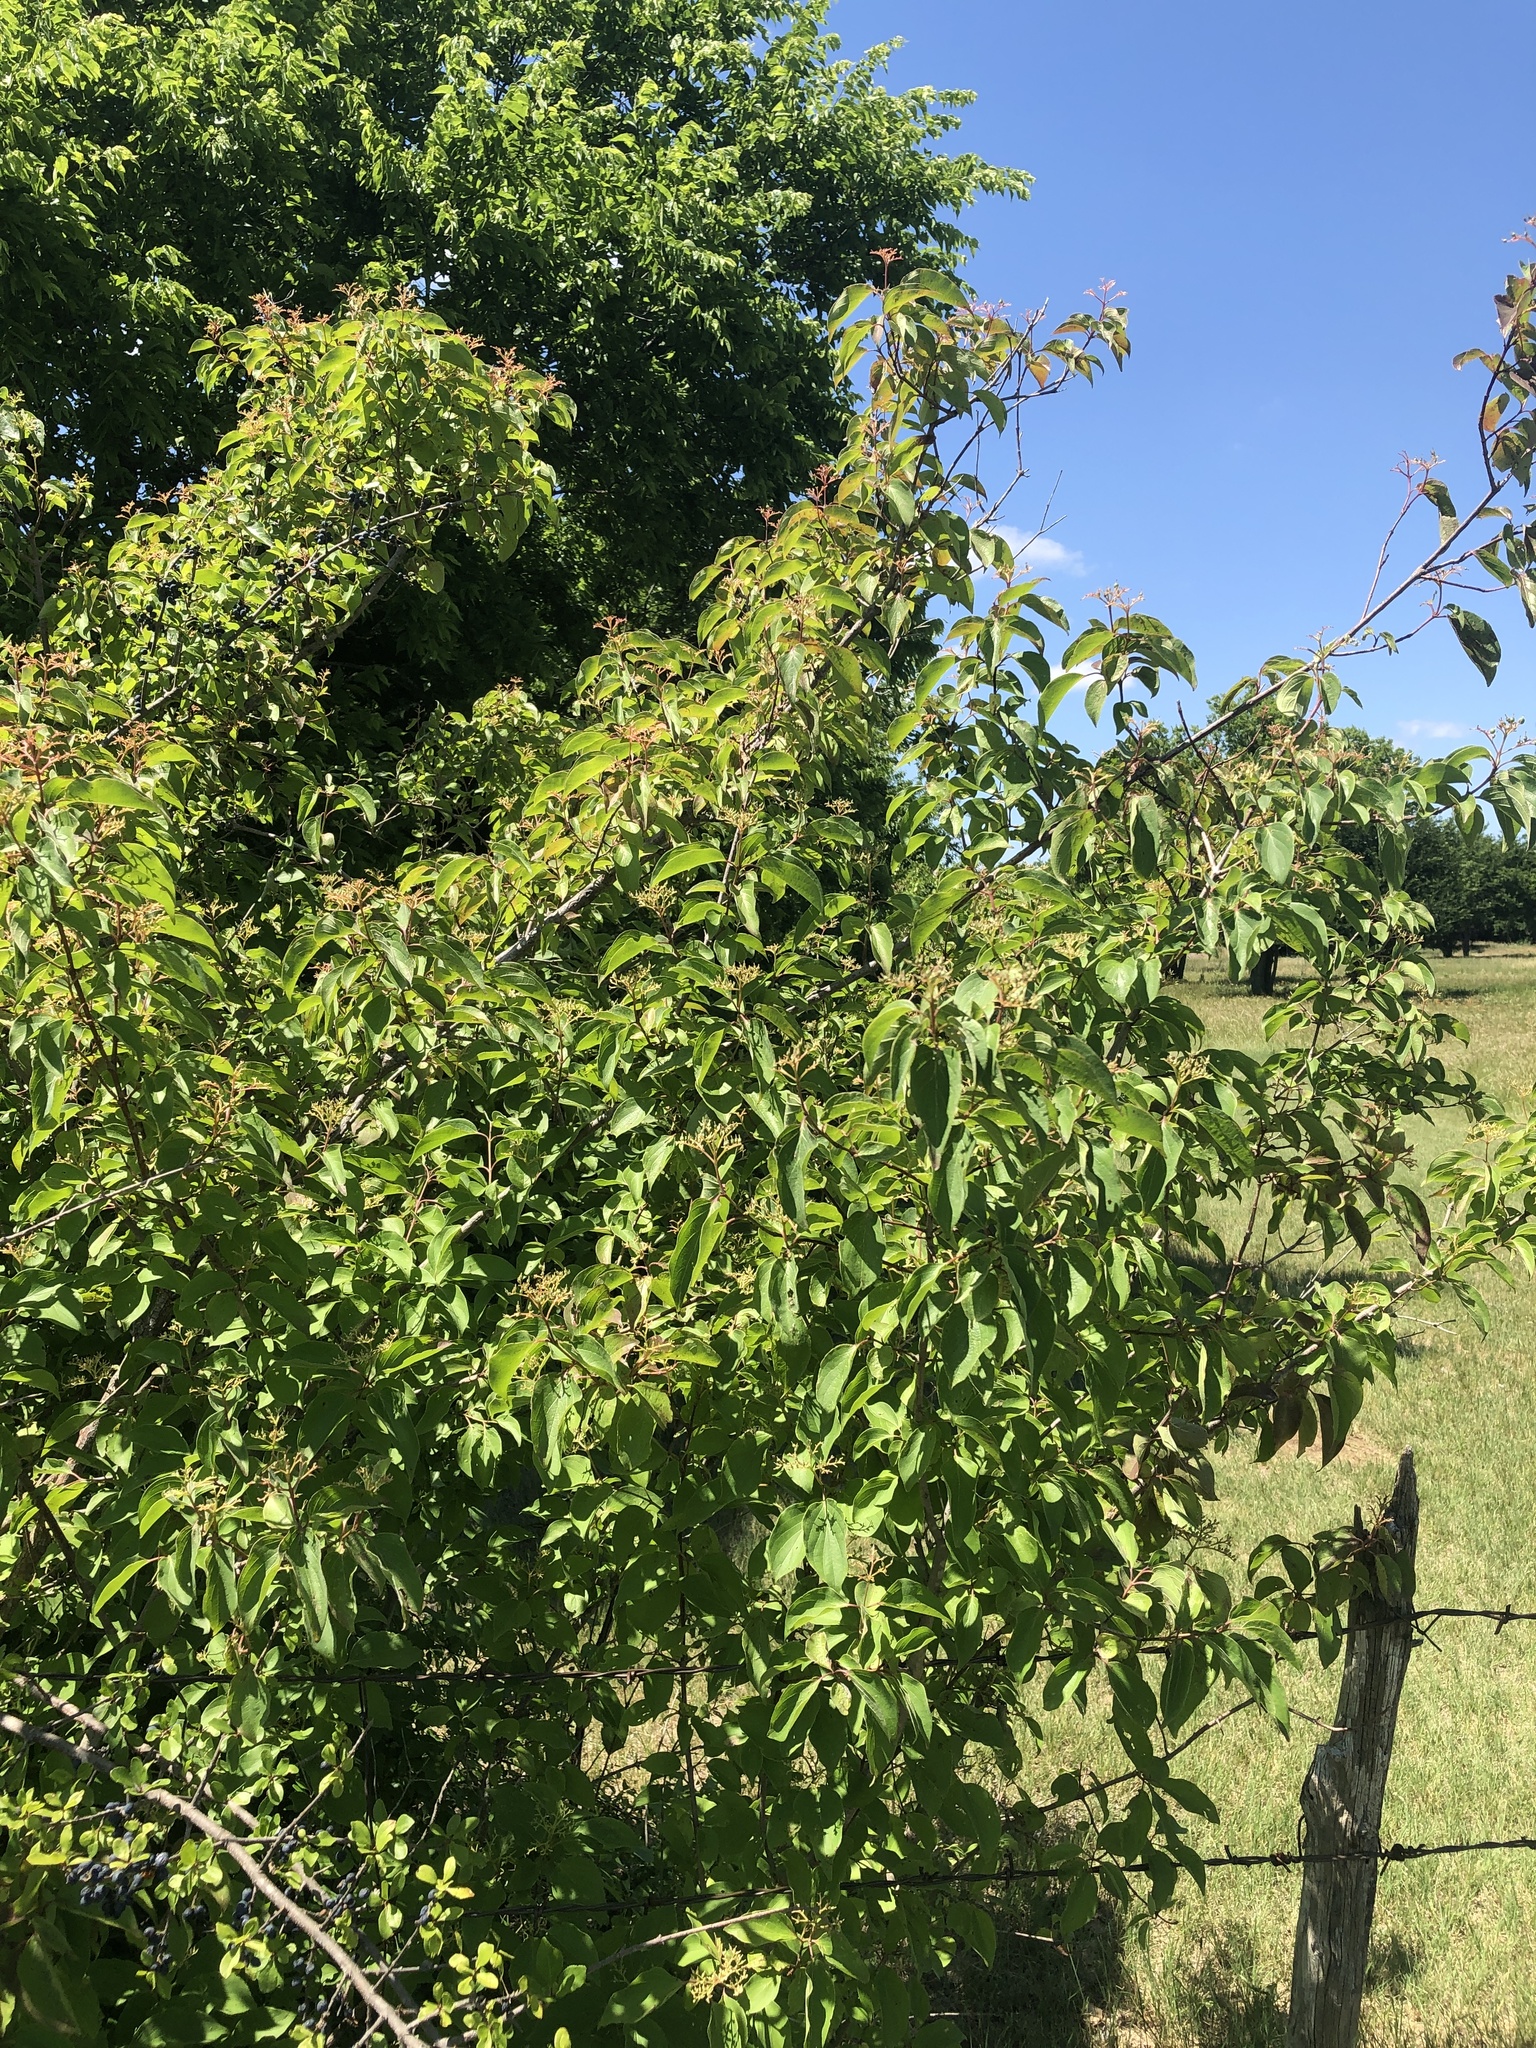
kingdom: Plantae
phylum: Tracheophyta
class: Magnoliopsida
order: Cornales
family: Cornaceae
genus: Cornus
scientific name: Cornus drummondii
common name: Rough-leaf dogwood
